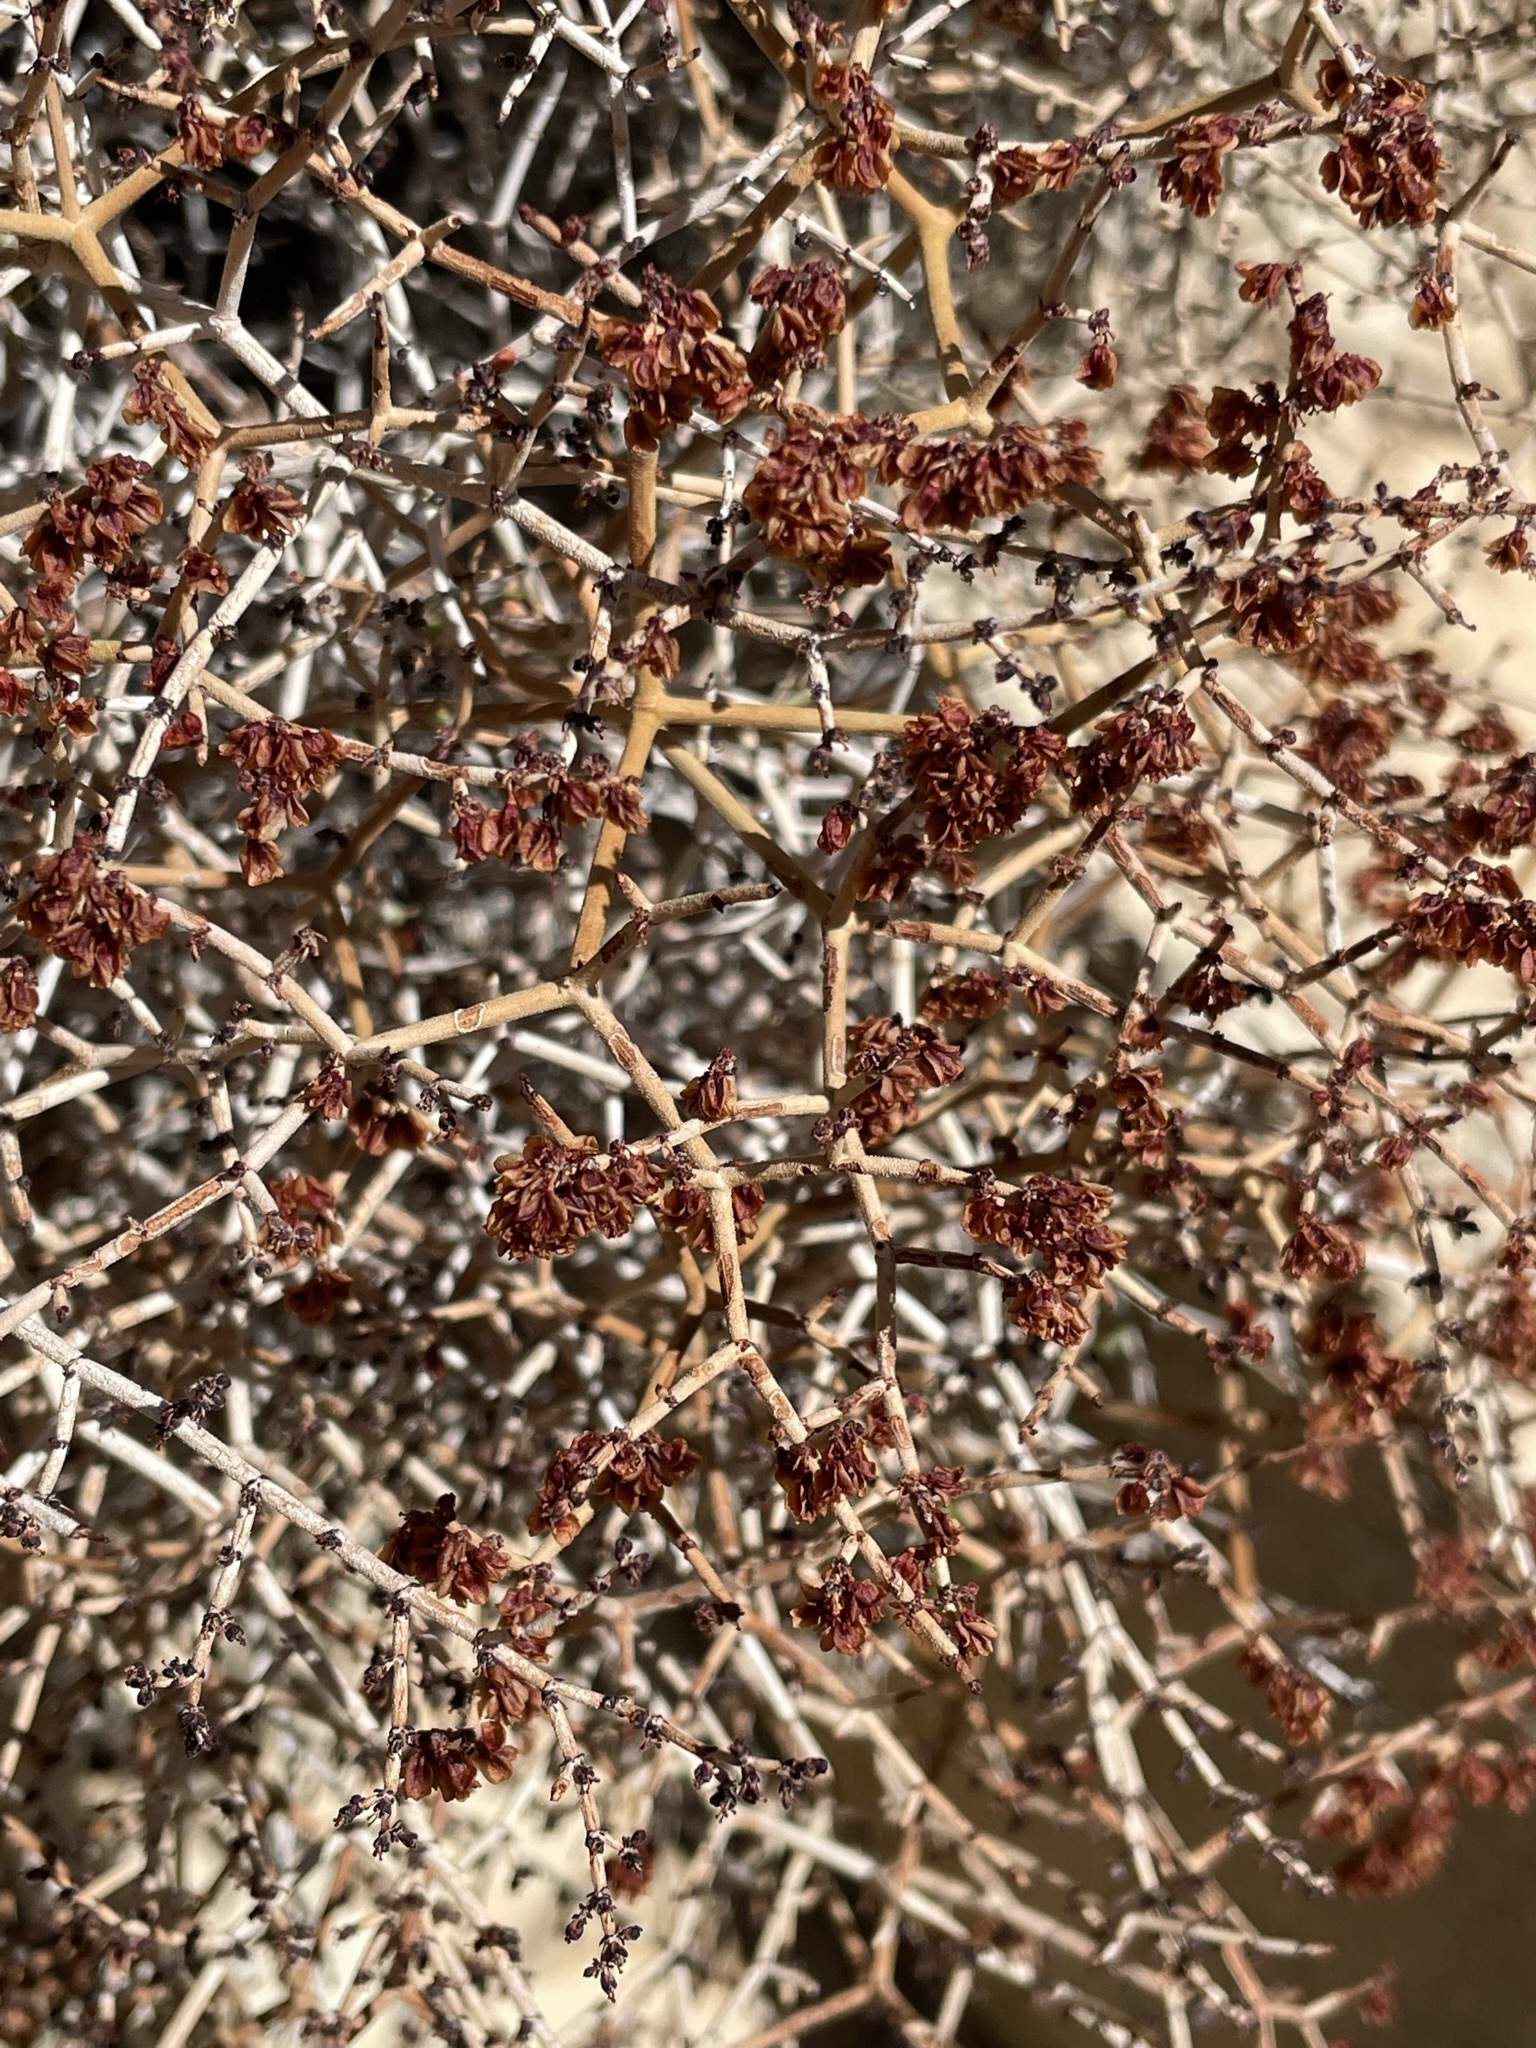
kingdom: Plantae
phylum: Tracheophyta
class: Magnoliopsida
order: Caryophyllales
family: Polygonaceae
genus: Eriogonum
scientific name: Eriogonum heermannii
